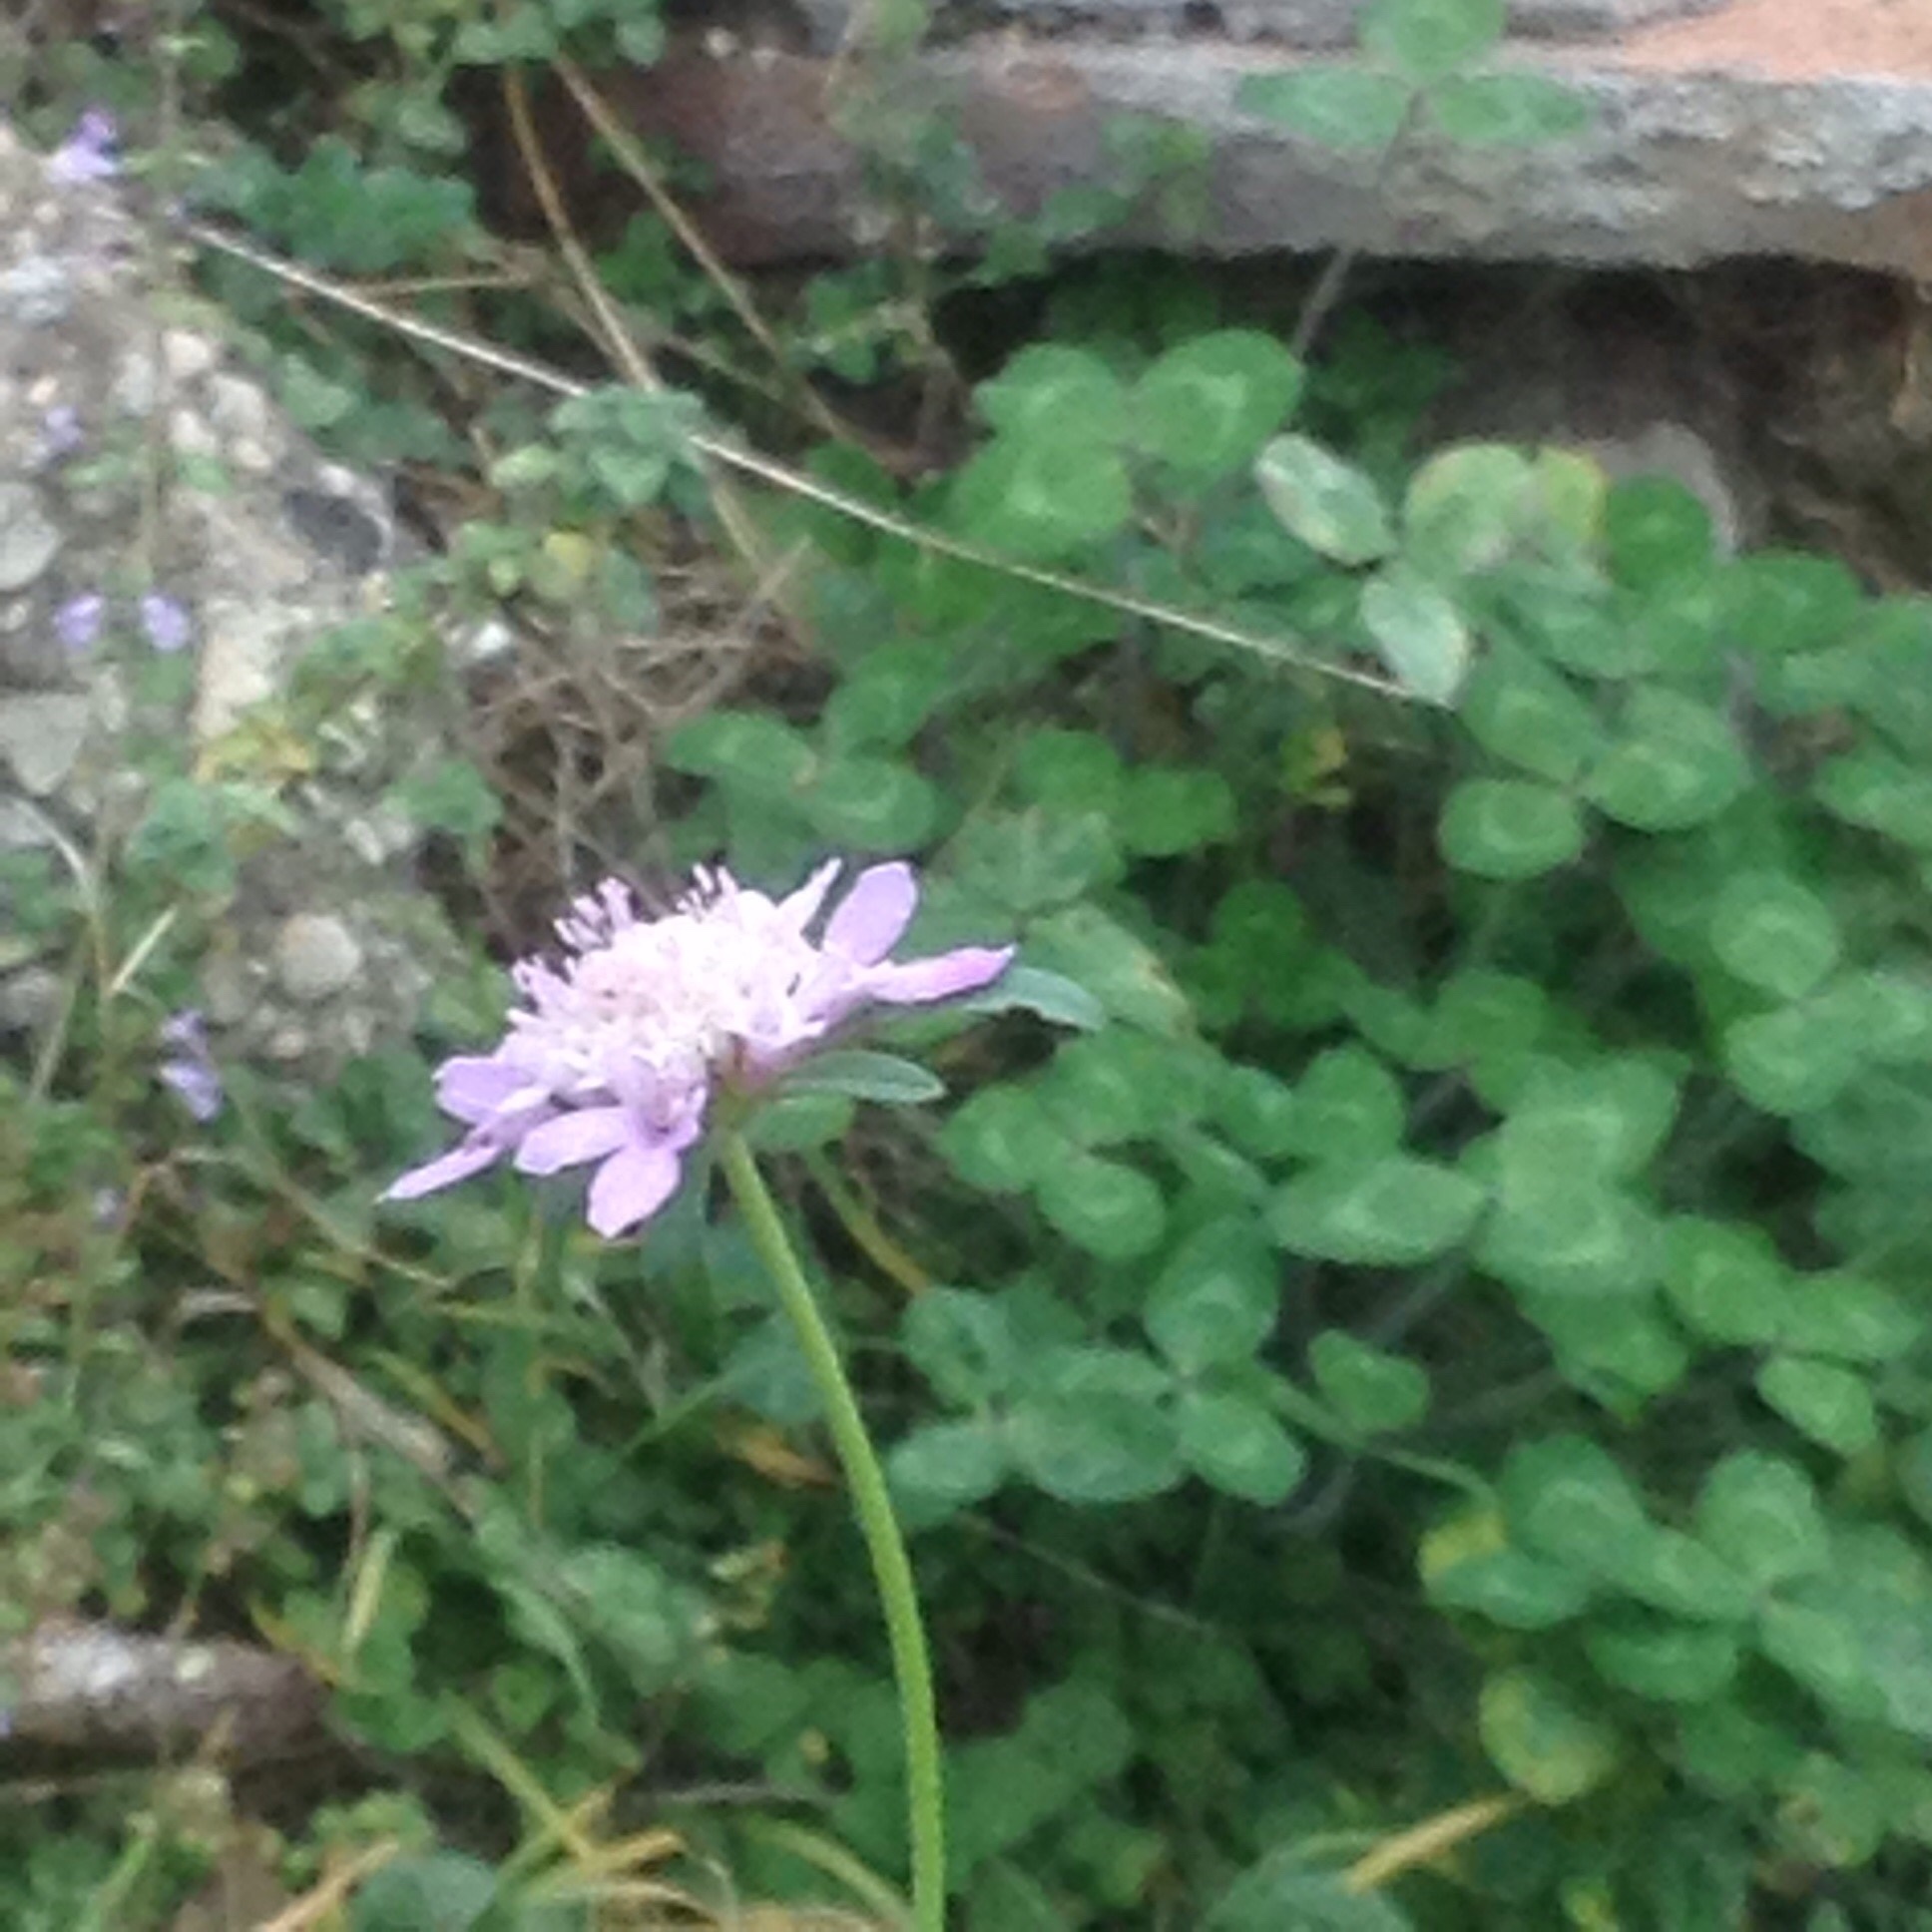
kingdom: Plantae
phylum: Tracheophyta
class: Magnoliopsida
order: Dipsacales
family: Caprifoliaceae
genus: Sixalix
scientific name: Sixalix atropurpurea
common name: Sweet scabious
